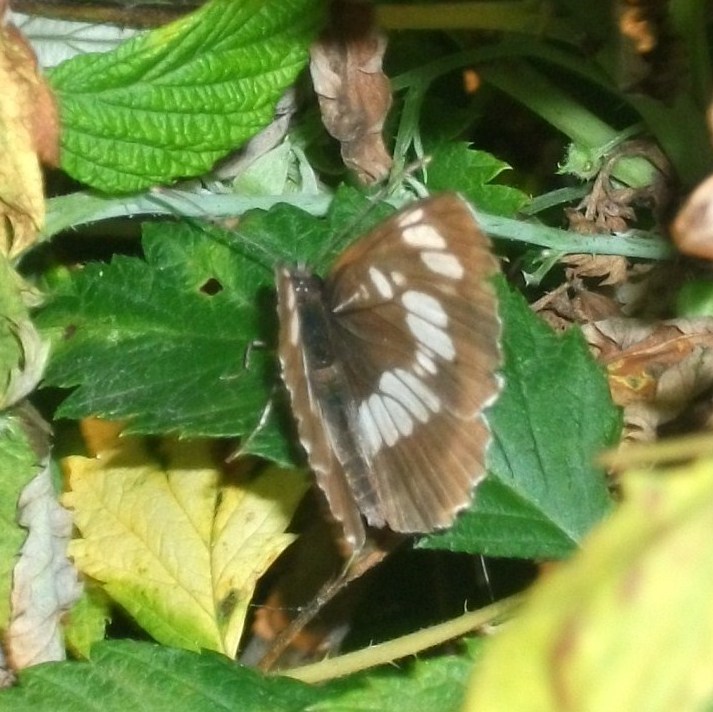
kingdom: Animalia
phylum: Arthropoda
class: Insecta
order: Lepidoptera
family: Nymphalidae
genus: Neptis
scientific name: Neptis rivularis
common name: Hungarian glider
